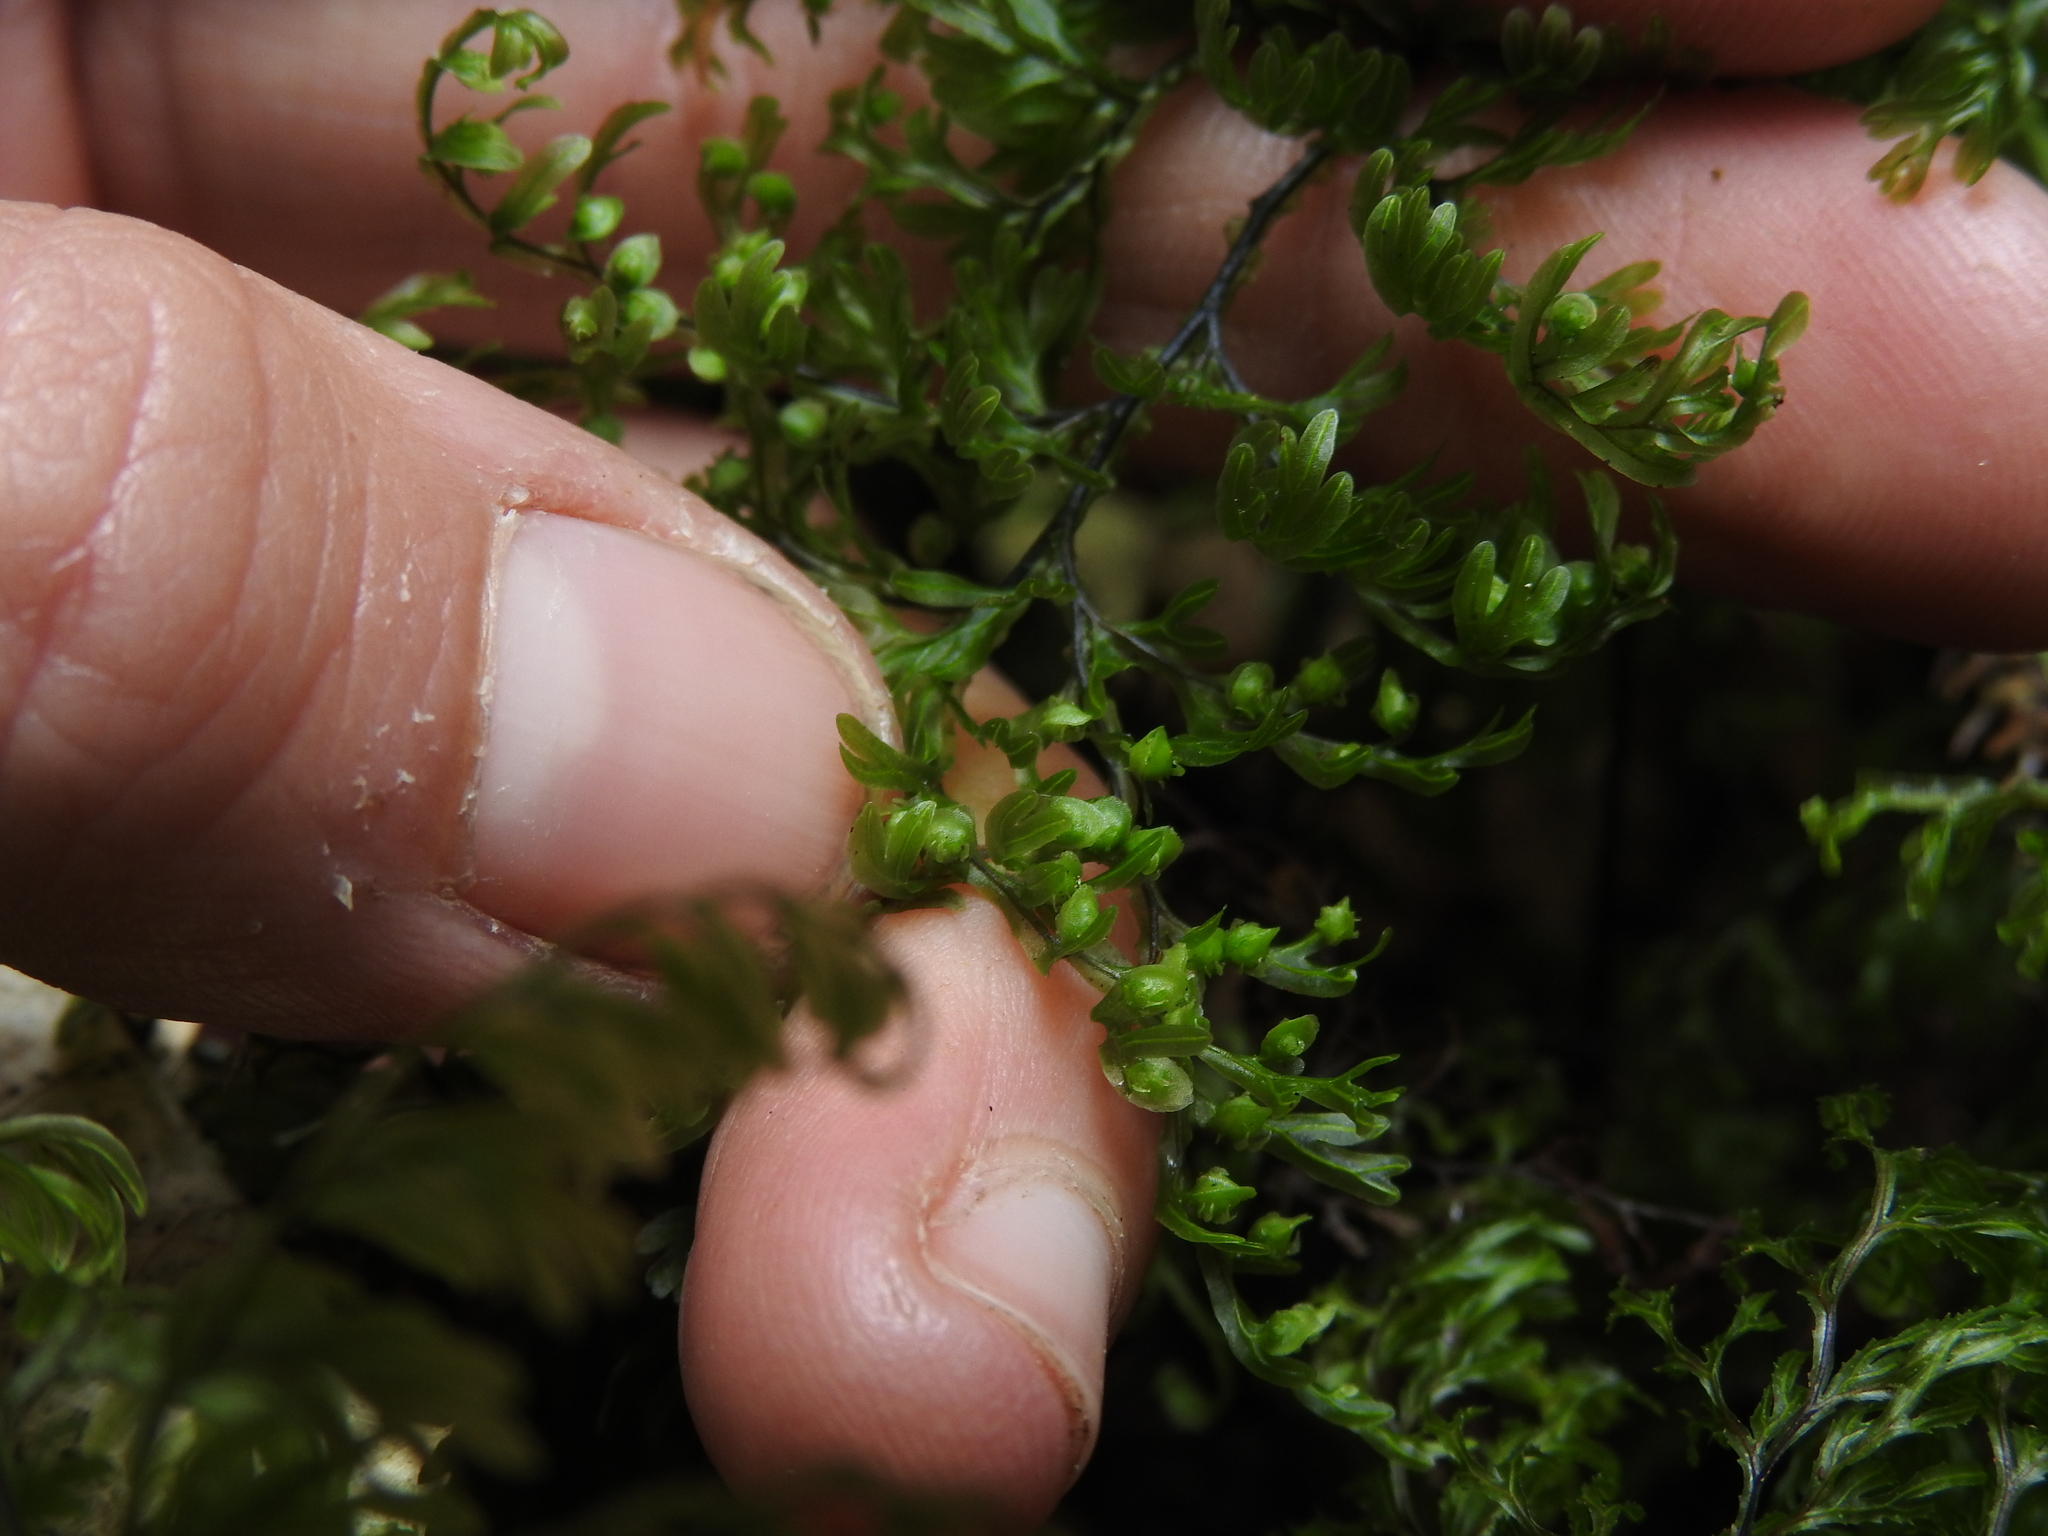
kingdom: Plantae
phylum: Tracheophyta
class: Polypodiopsida
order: Hymenophyllales
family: Hymenophyllaceae
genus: Hymenophyllum
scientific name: Hymenophyllum sanguinolentum
